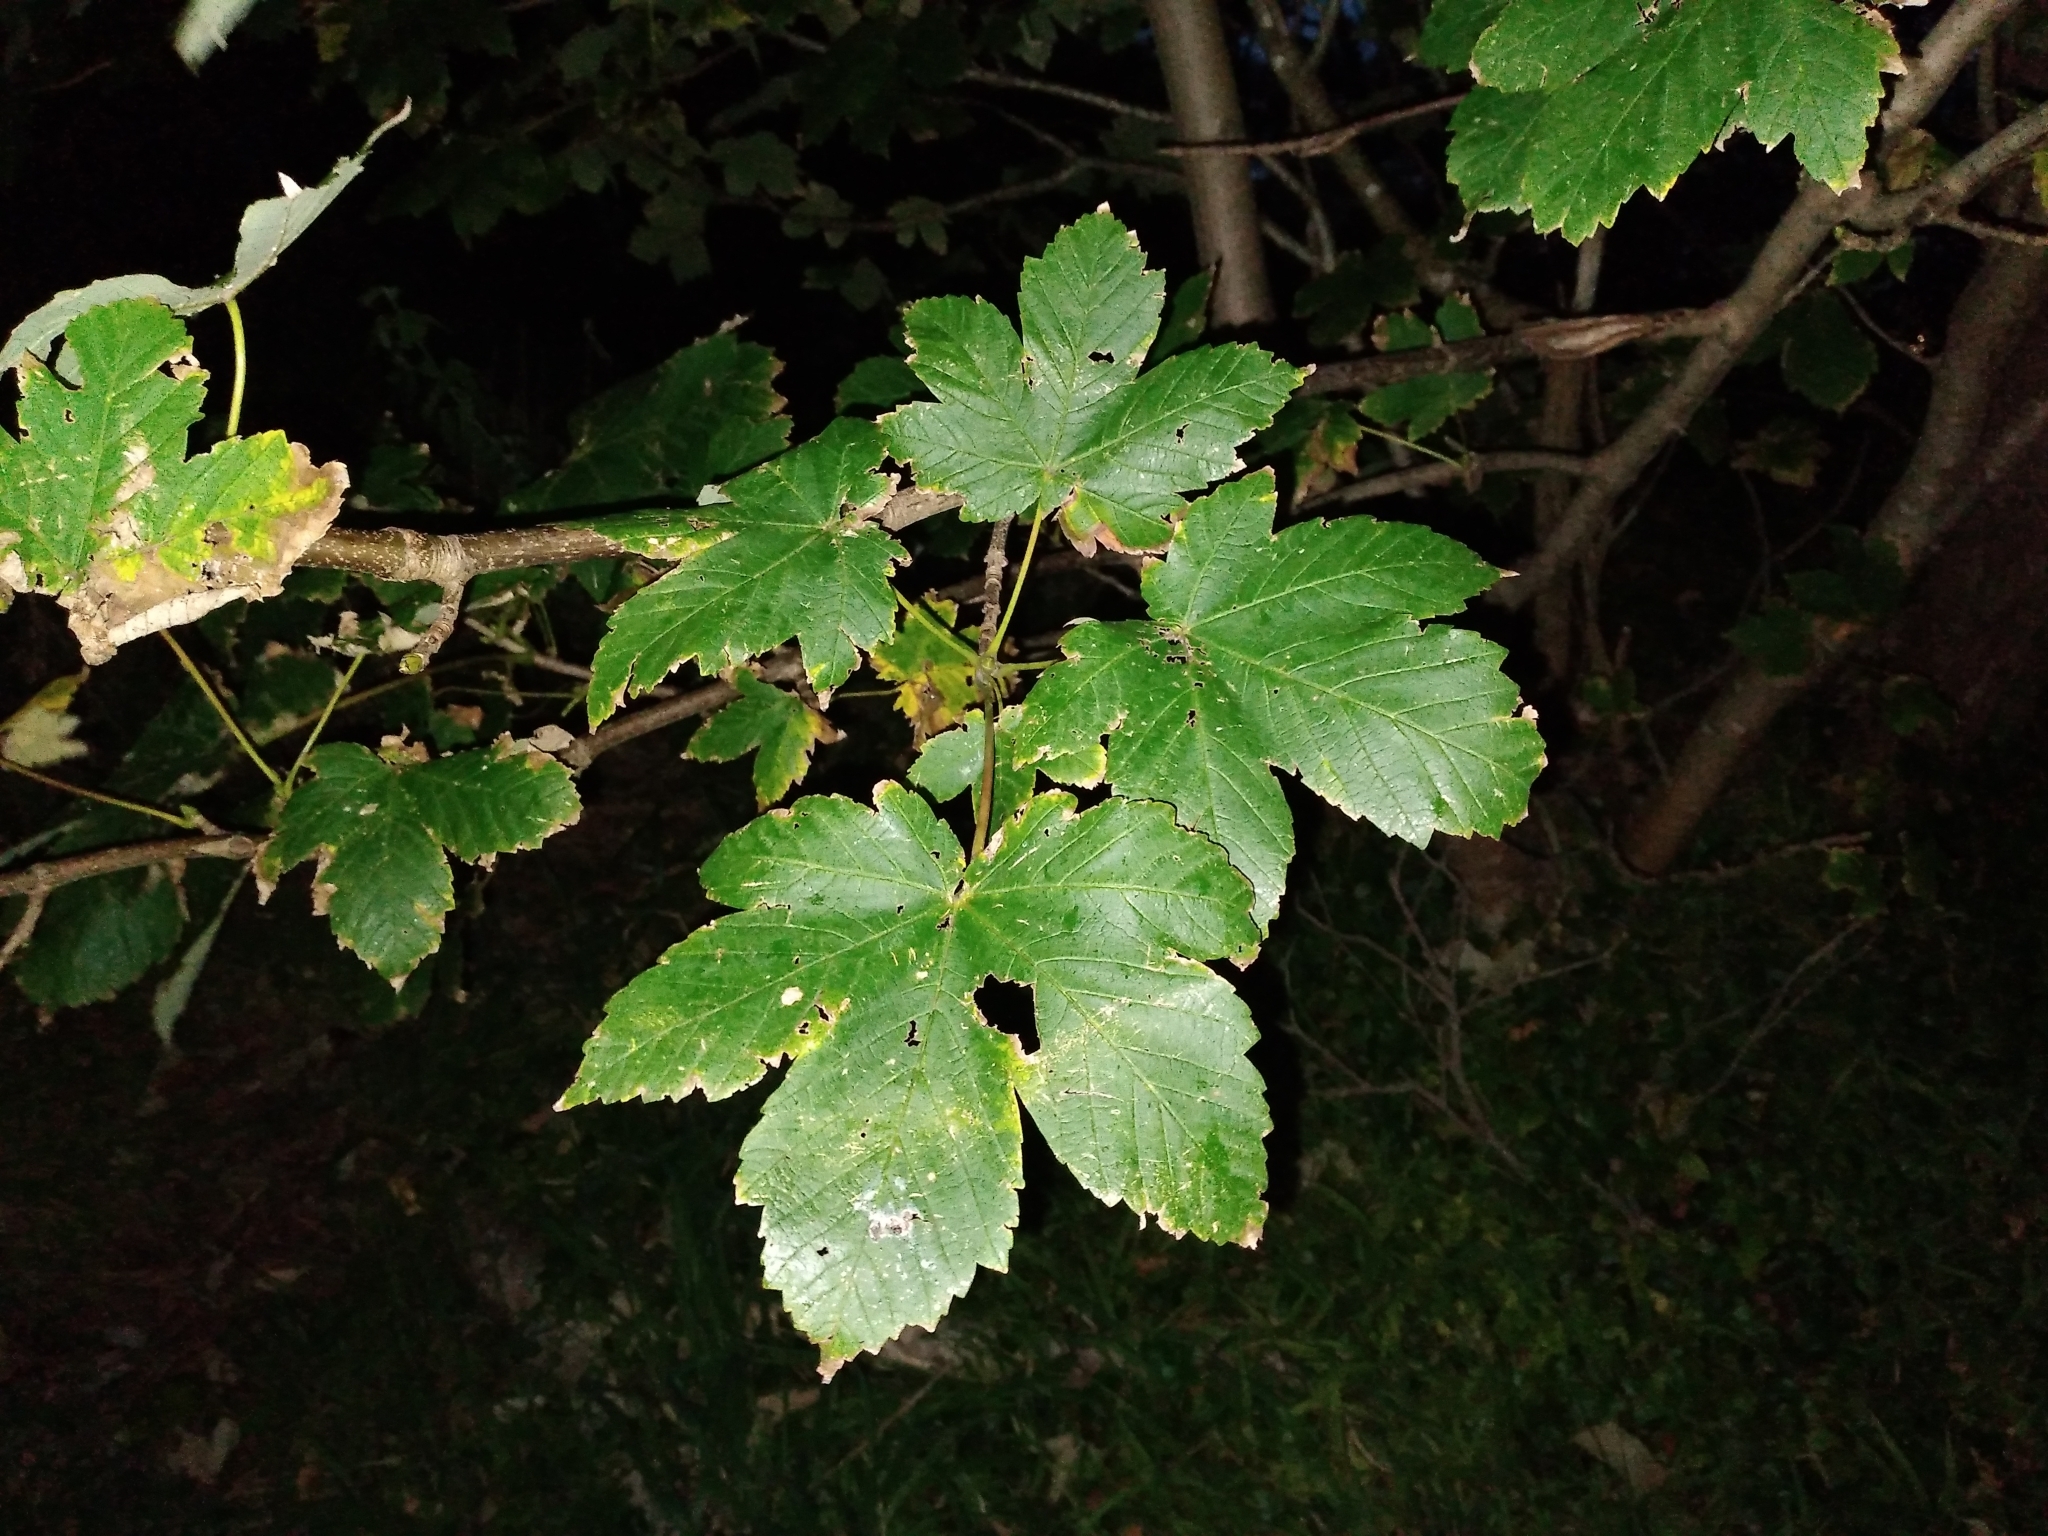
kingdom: Plantae
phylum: Tracheophyta
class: Magnoliopsida
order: Sapindales
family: Sapindaceae
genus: Acer
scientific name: Acer pseudoplatanus
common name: Sycamore
